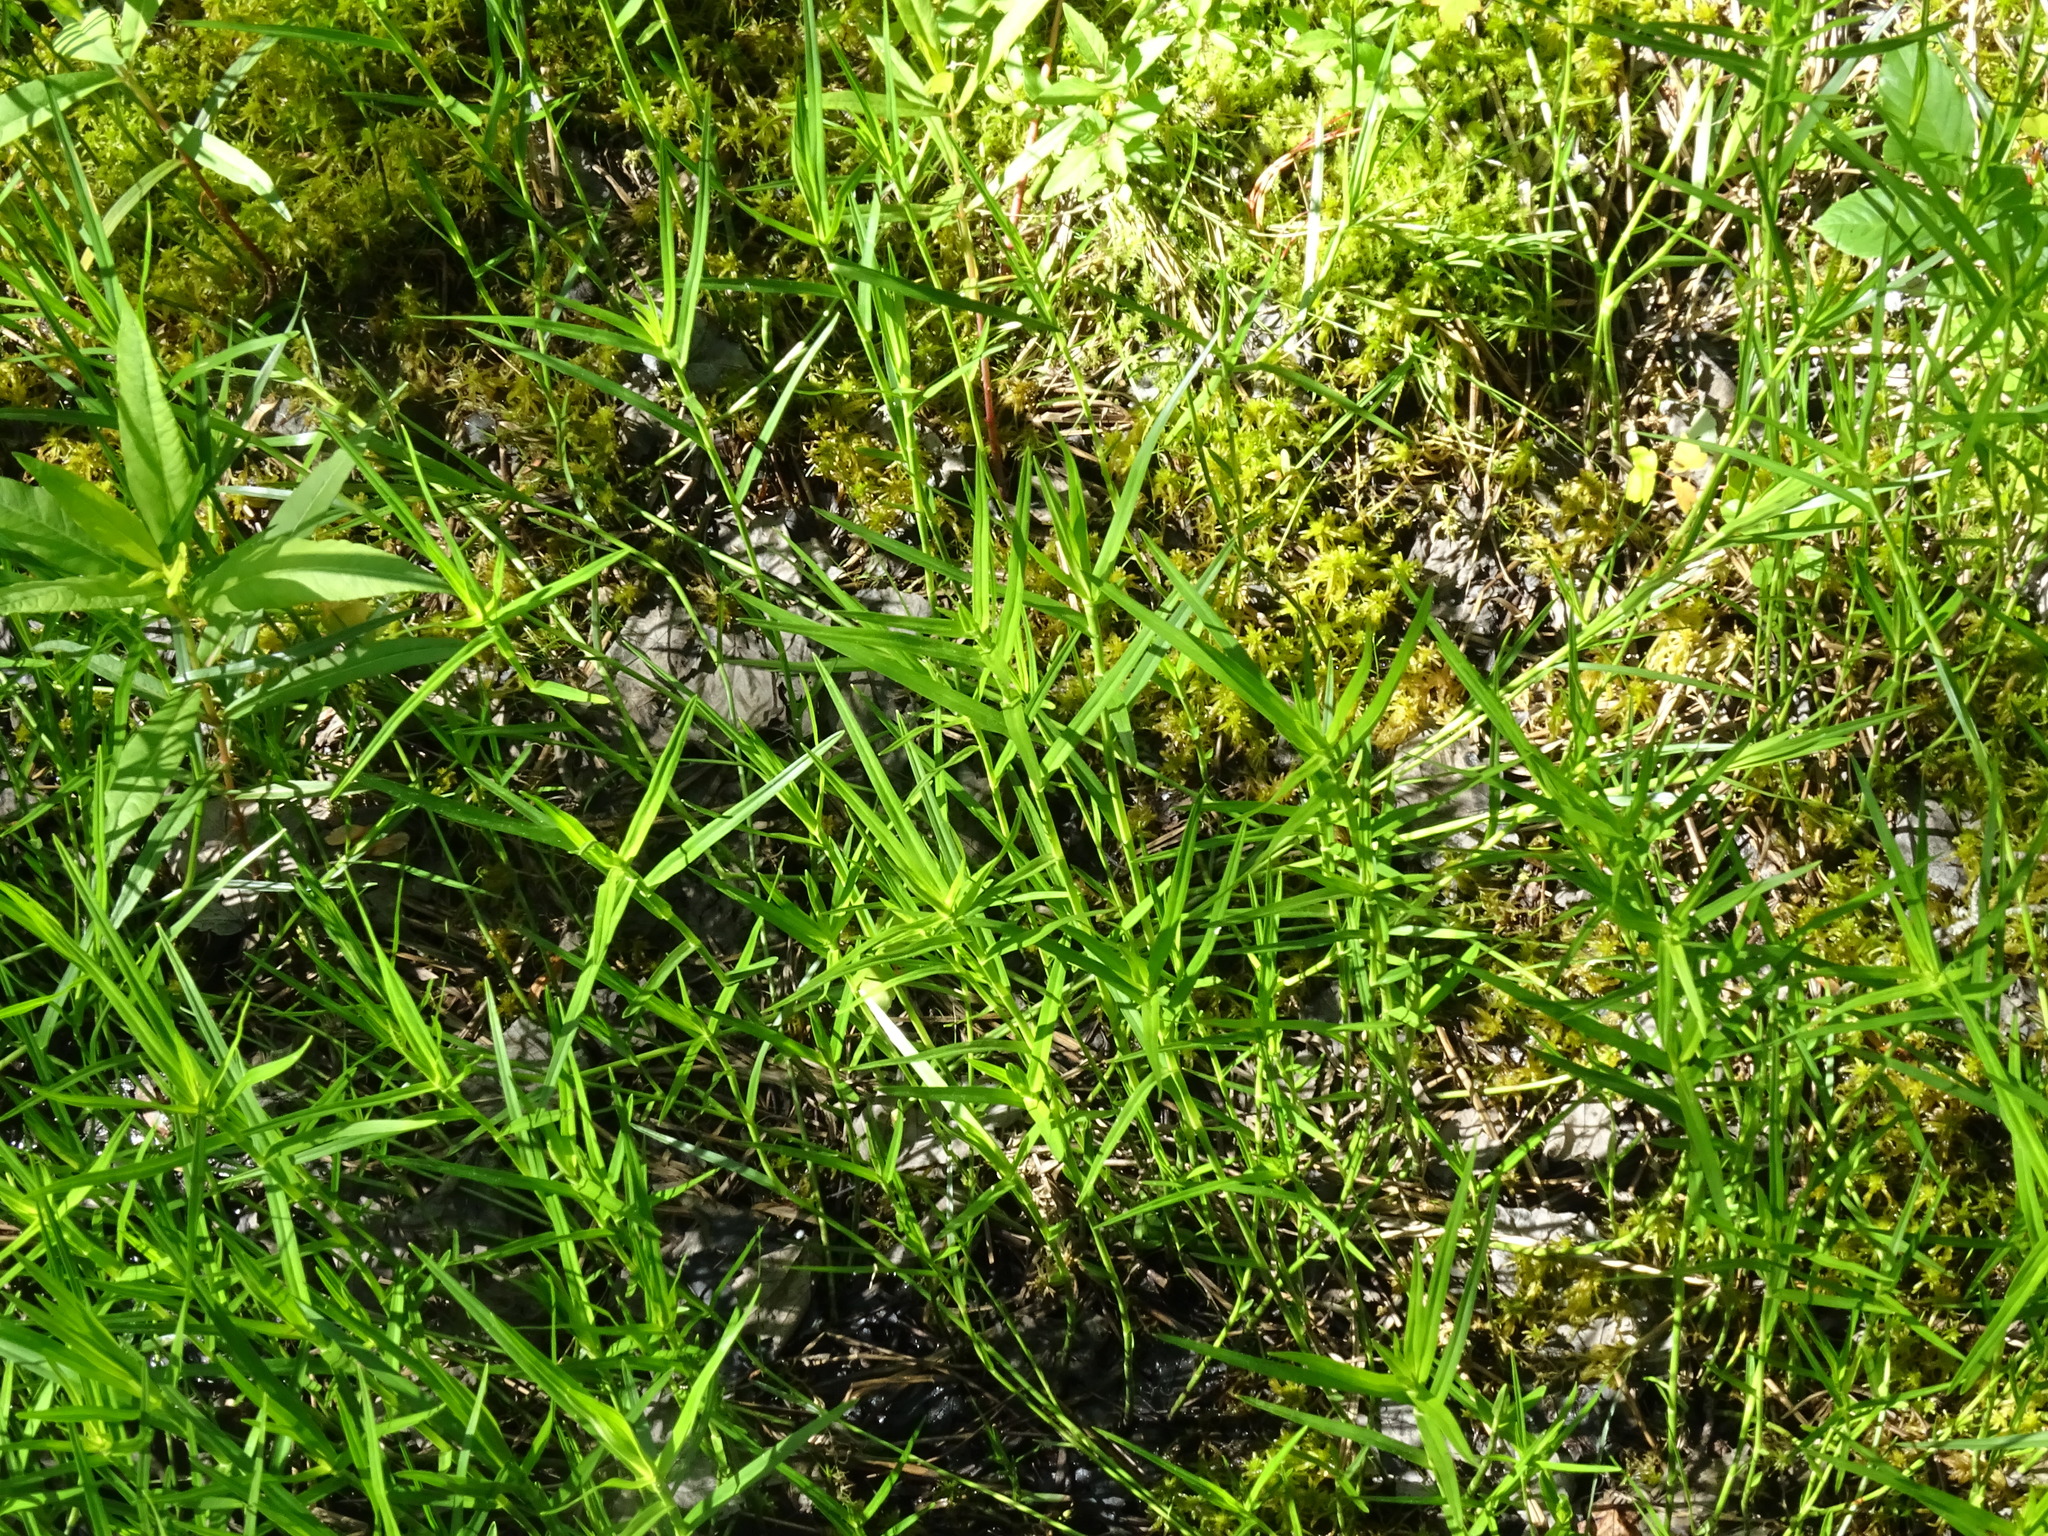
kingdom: Plantae
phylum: Tracheophyta
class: Liliopsida
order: Poales
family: Cyperaceae
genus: Dulichium
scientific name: Dulichium arundinaceum
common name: Three-way sedge
